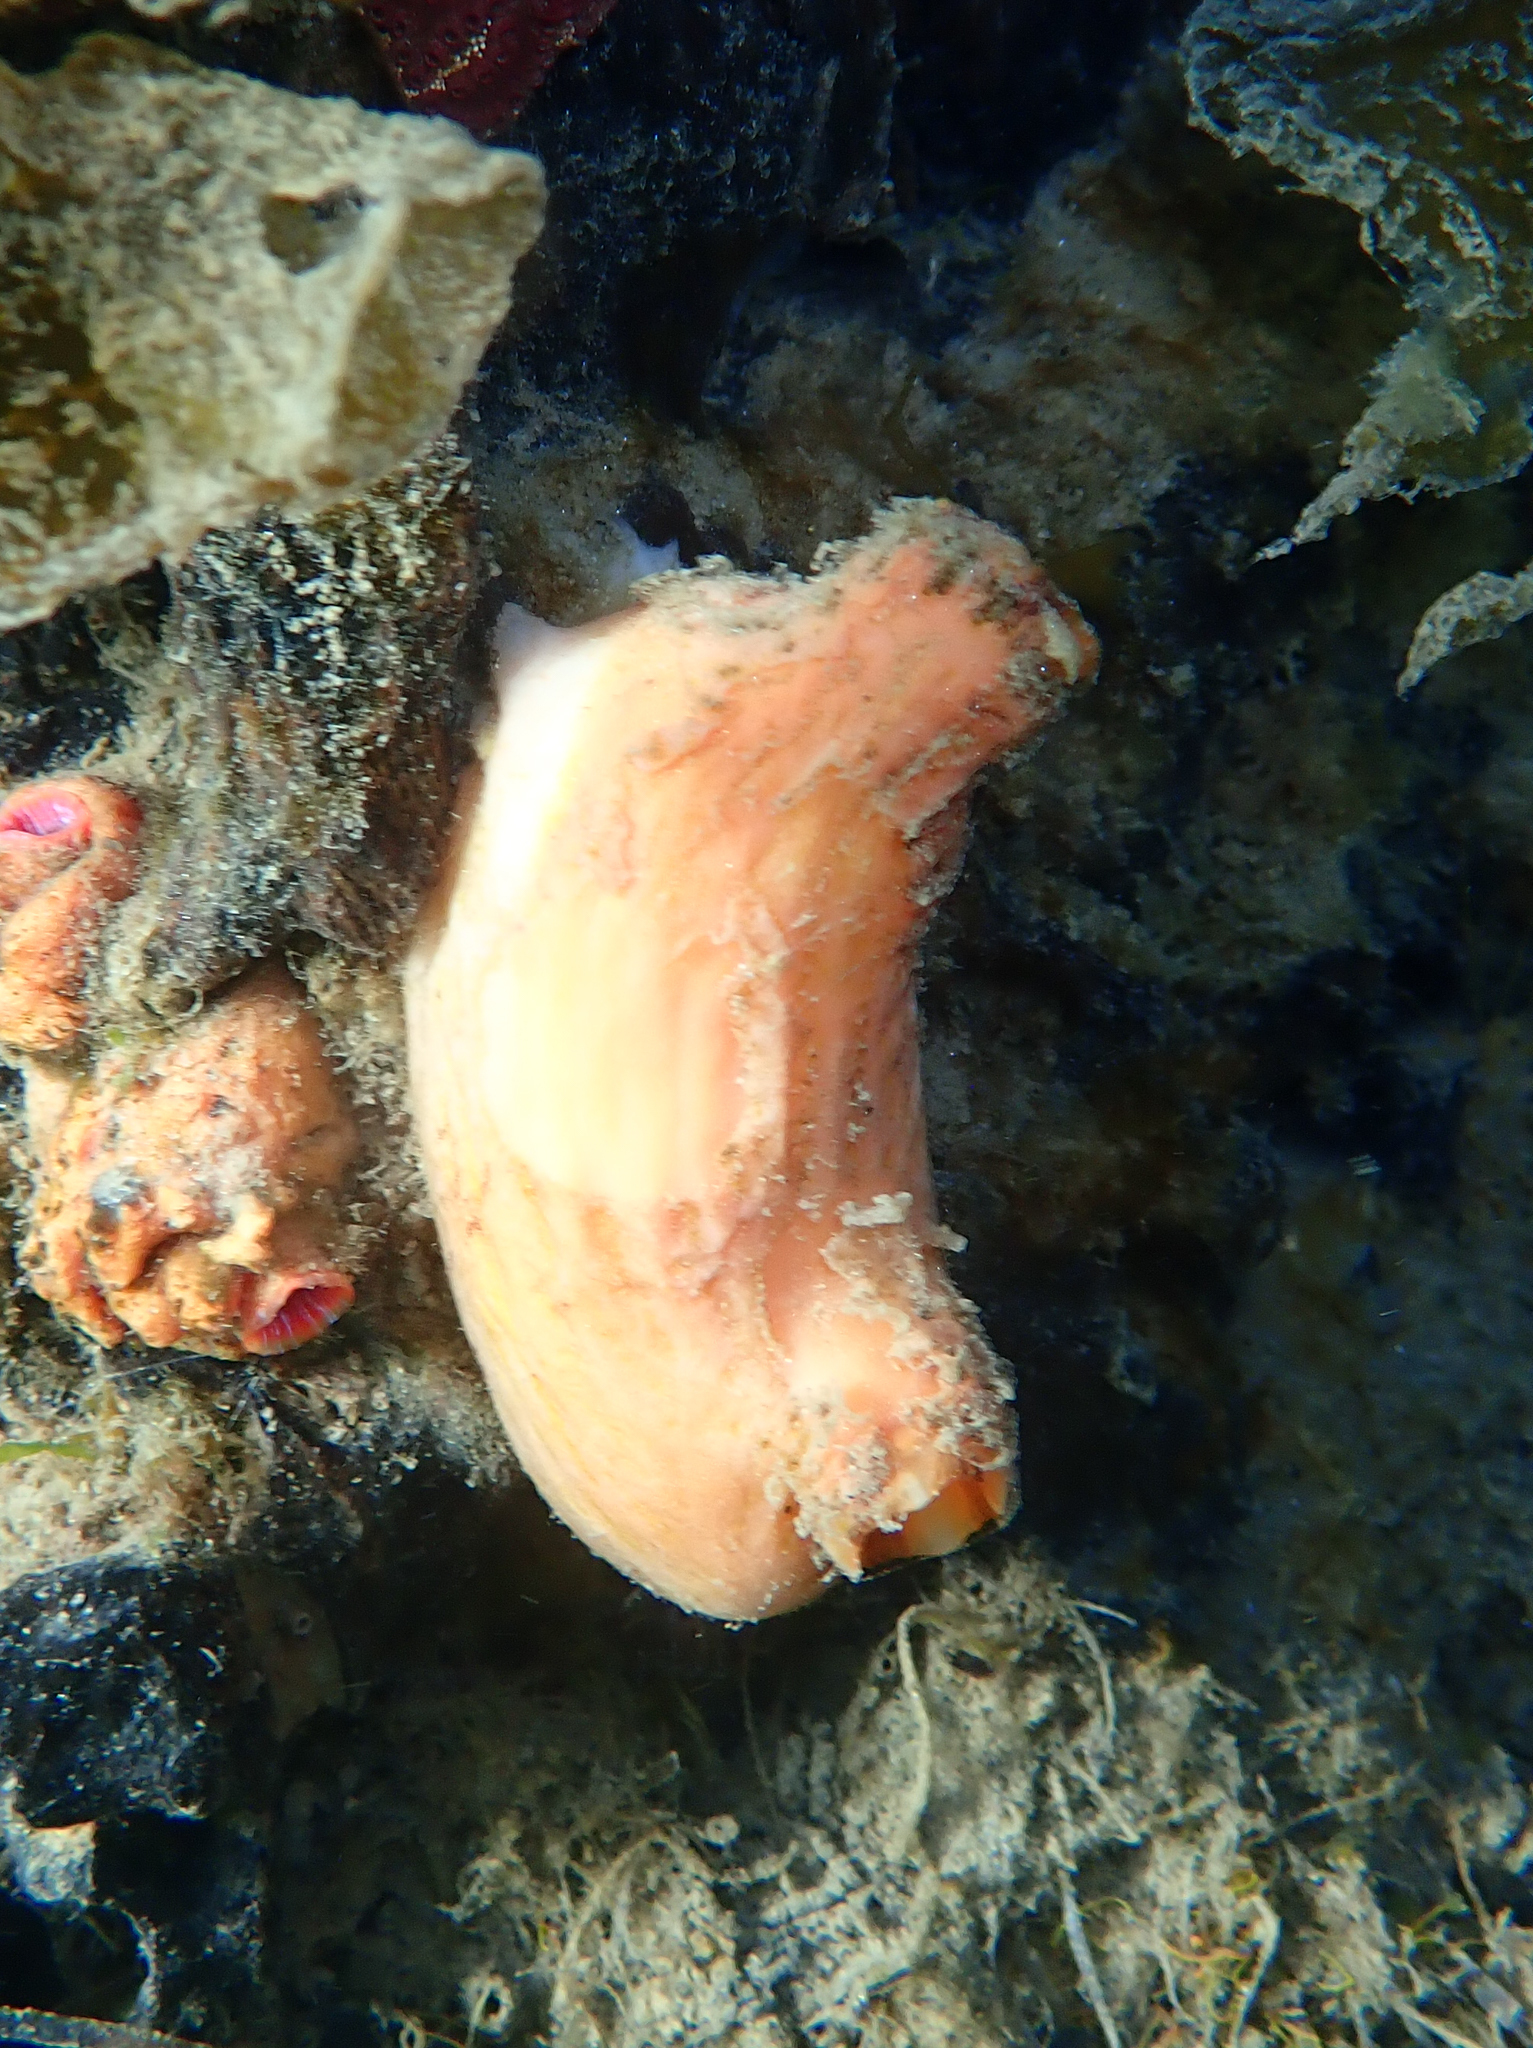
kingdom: Animalia
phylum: Chordata
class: Ascidiacea
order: Stolidobranchia
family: Styelidae
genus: Cnemidocarpa
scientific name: Cnemidocarpa bicornuta
